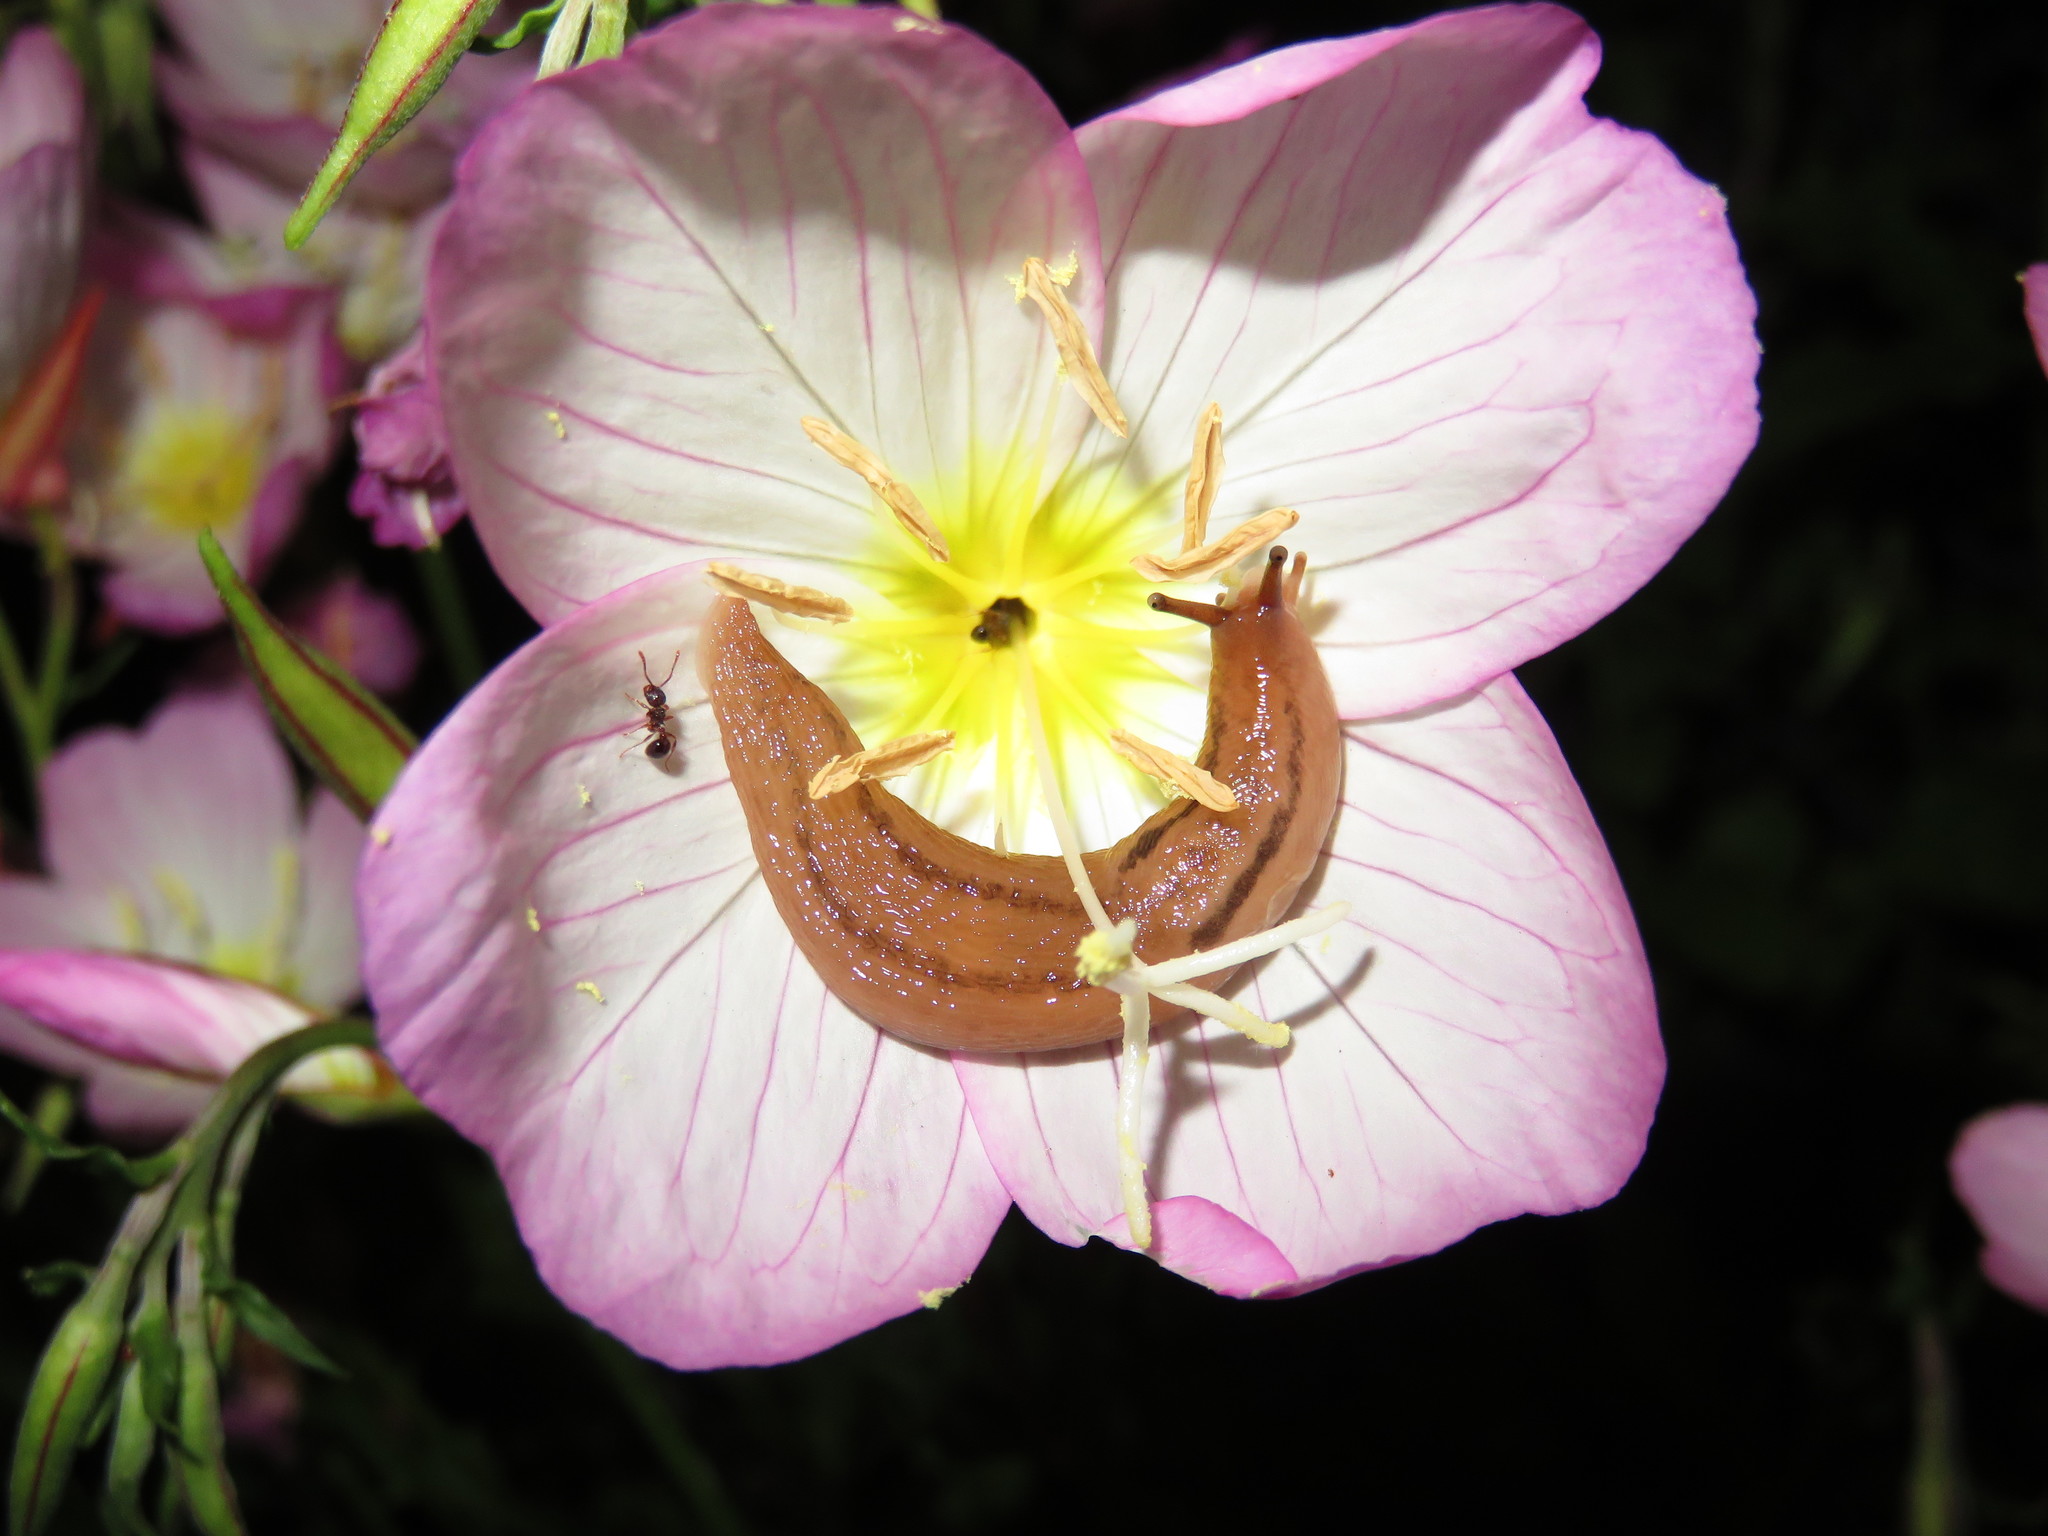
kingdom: Animalia
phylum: Mollusca
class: Gastropoda
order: Stylommatophora
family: Limacidae
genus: Ambigolimax
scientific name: Ambigolimax valentianus
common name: Greenhouse slug
